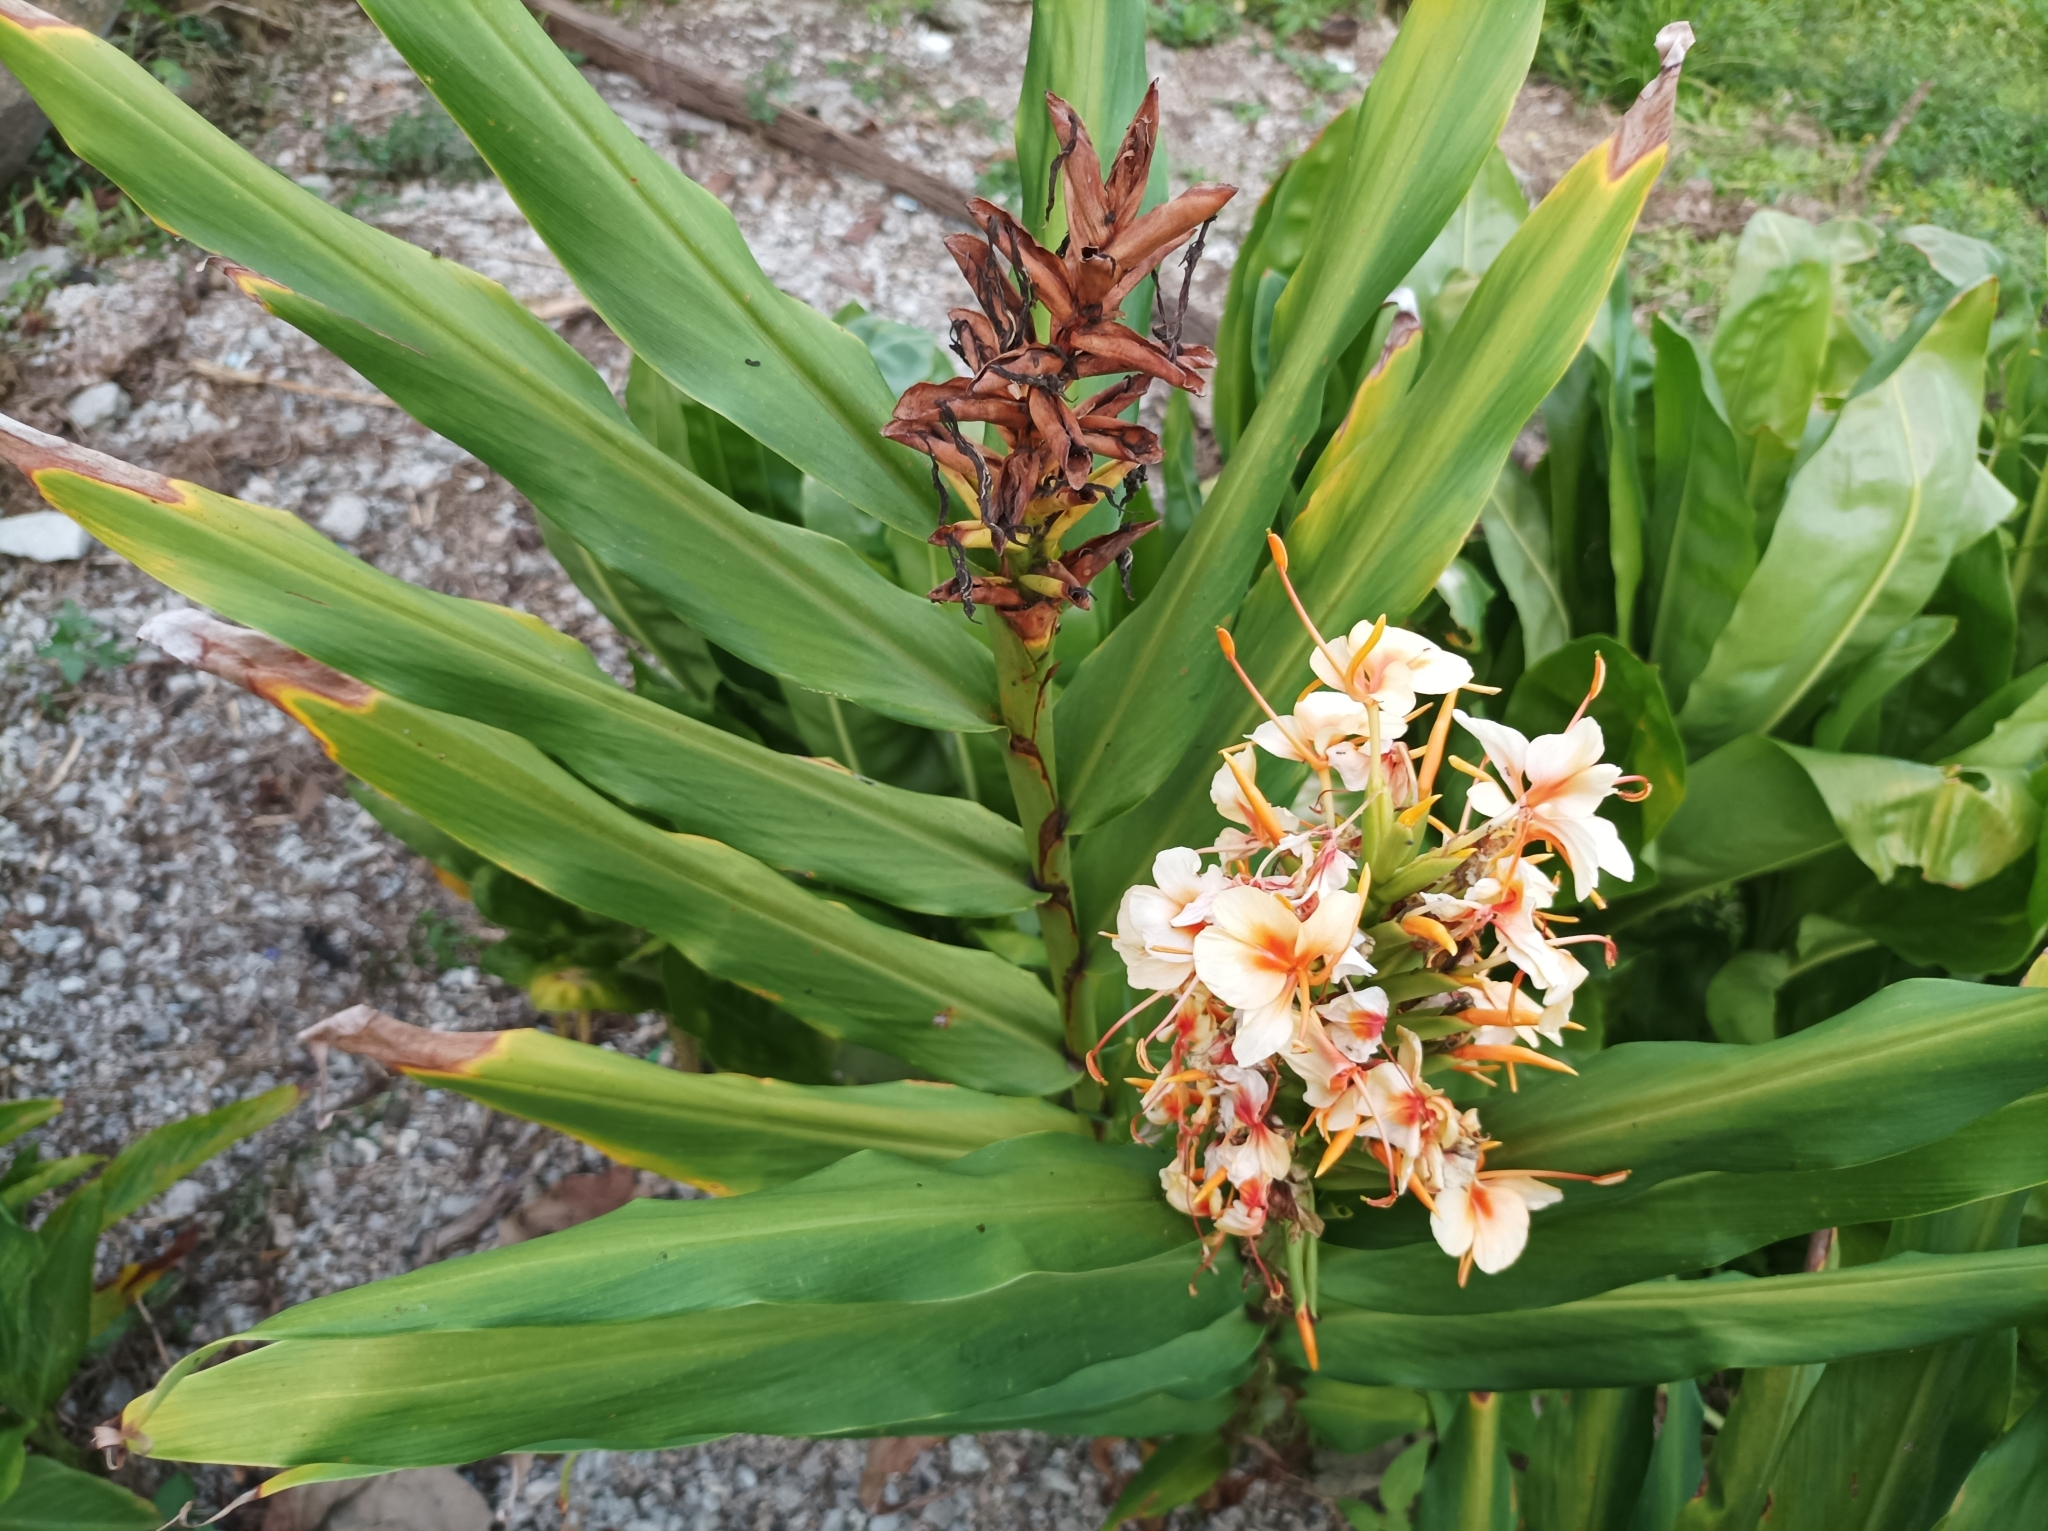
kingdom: Plantae
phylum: Tracheophyta
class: Liliopsida
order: Zingiberales
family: Zingiberaceae
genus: Hedychium
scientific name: Hedychium coccineum
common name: Red ginger-lily
